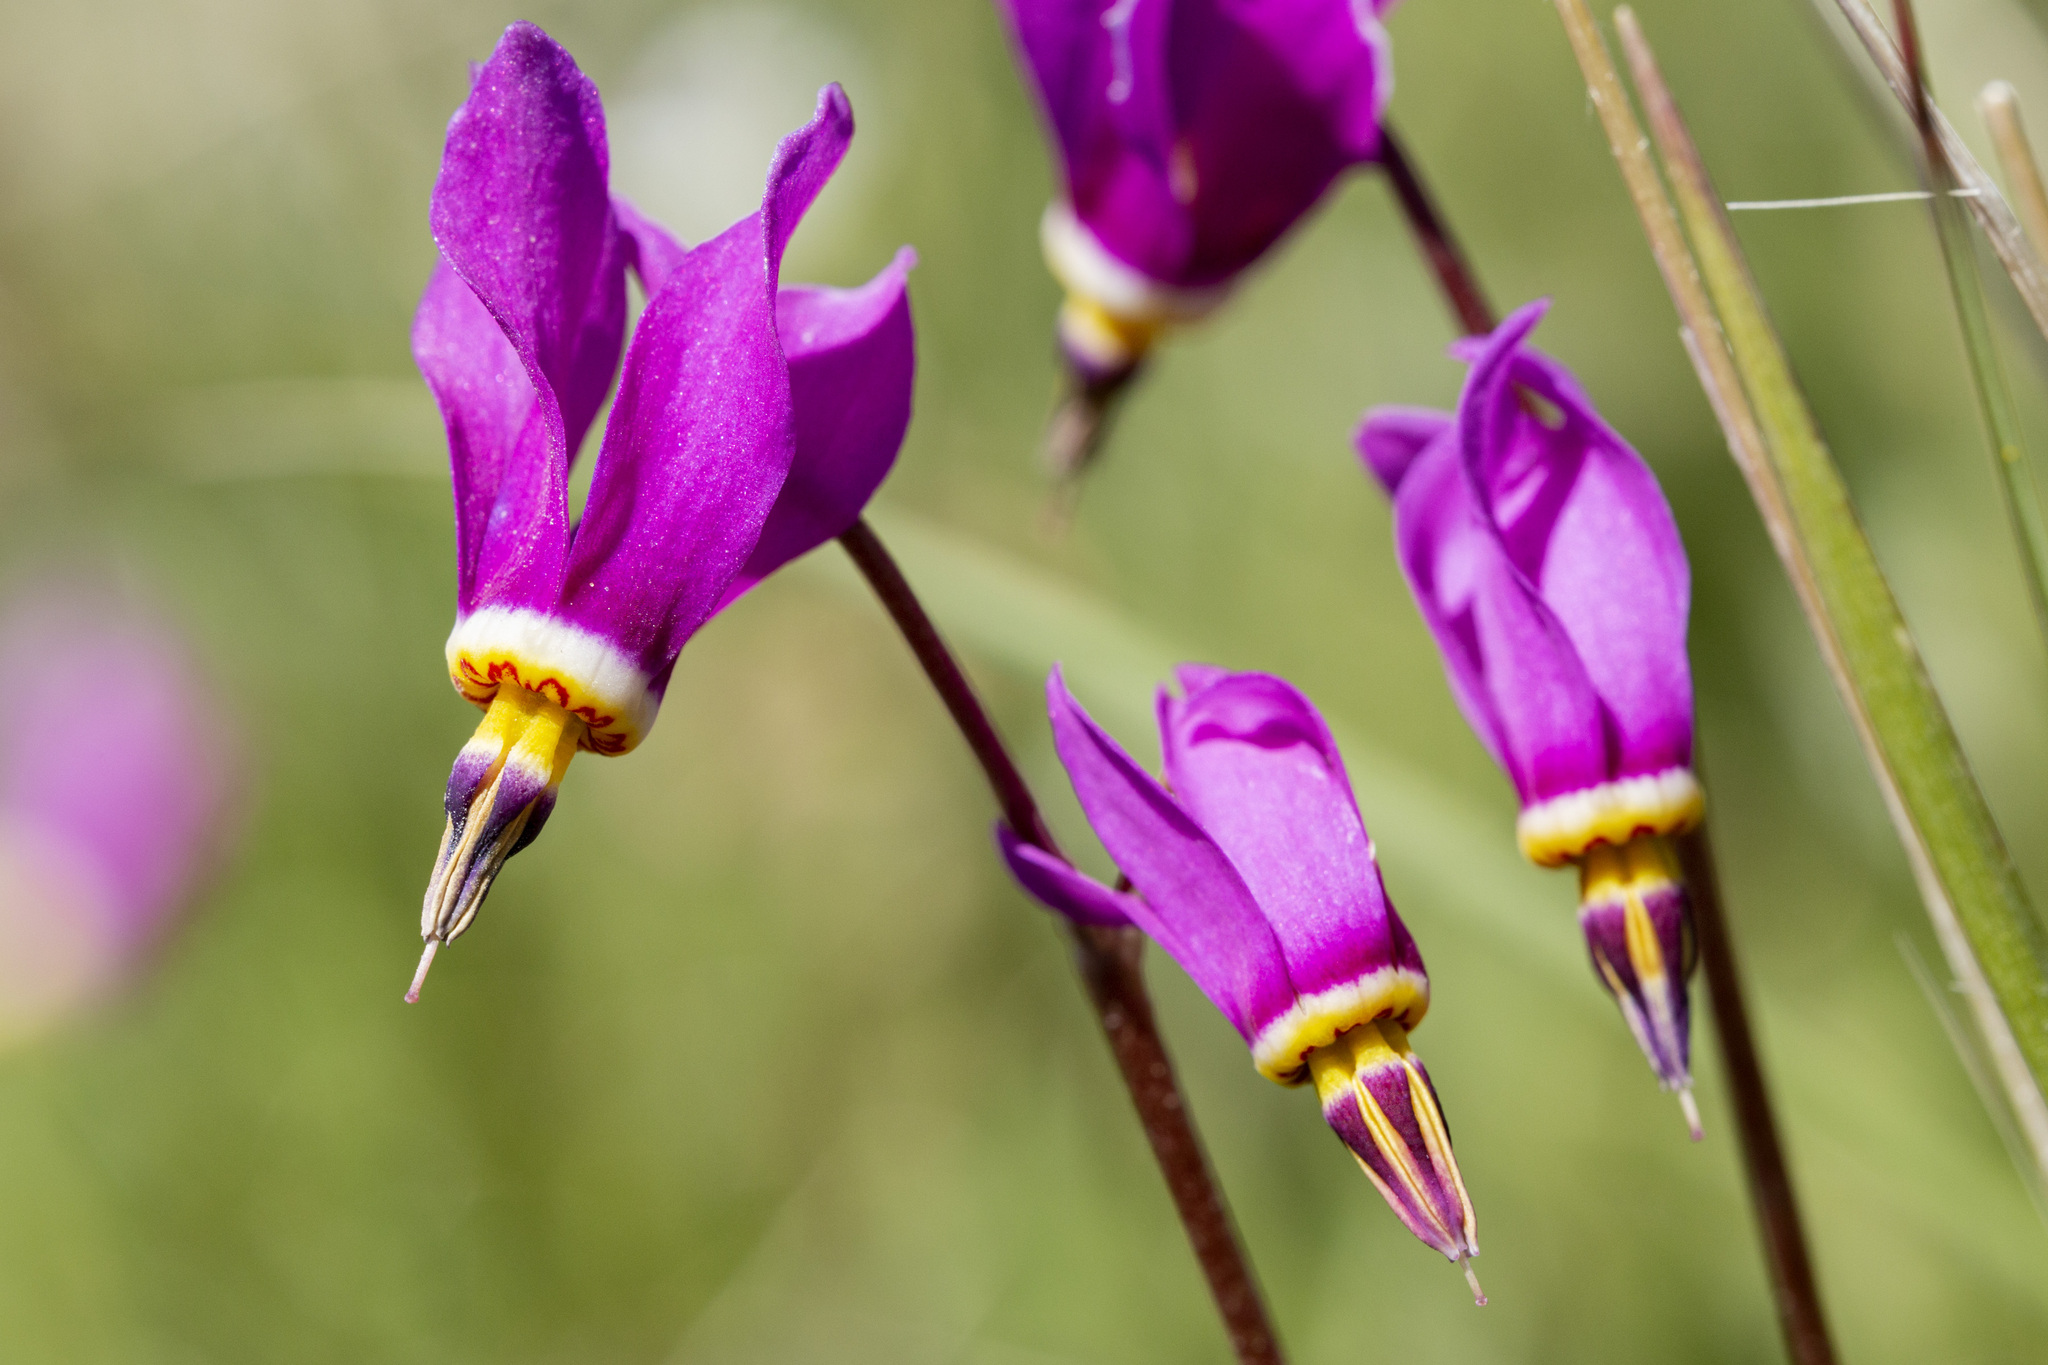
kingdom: Plantae
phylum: Tracheophyta
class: Magnoliopsida
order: Ericales
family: Primulaceae
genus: Dodecatheon
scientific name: Dodecatheon pulchellum
